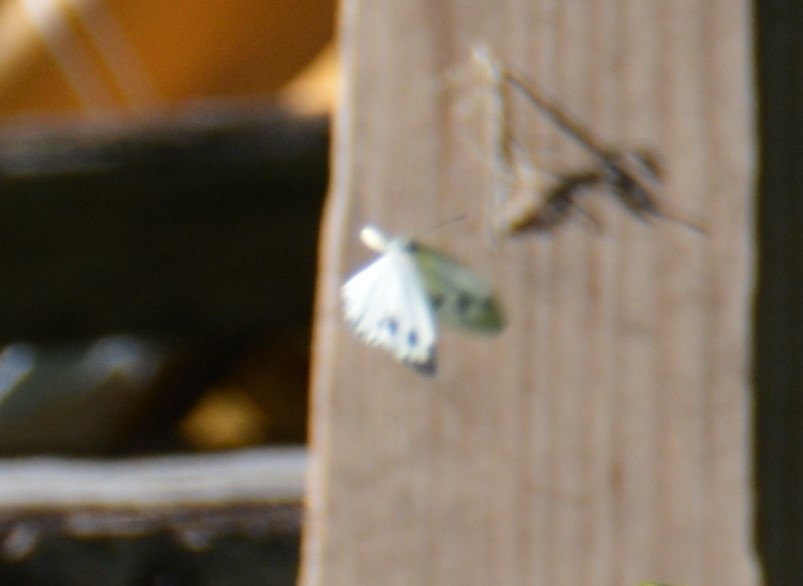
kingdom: Animalia
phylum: Arthropoda
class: Insecta
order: Lepidoptera
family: Pieridae
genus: Pieris
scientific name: Pieris canidia
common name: Indian cabbage white
